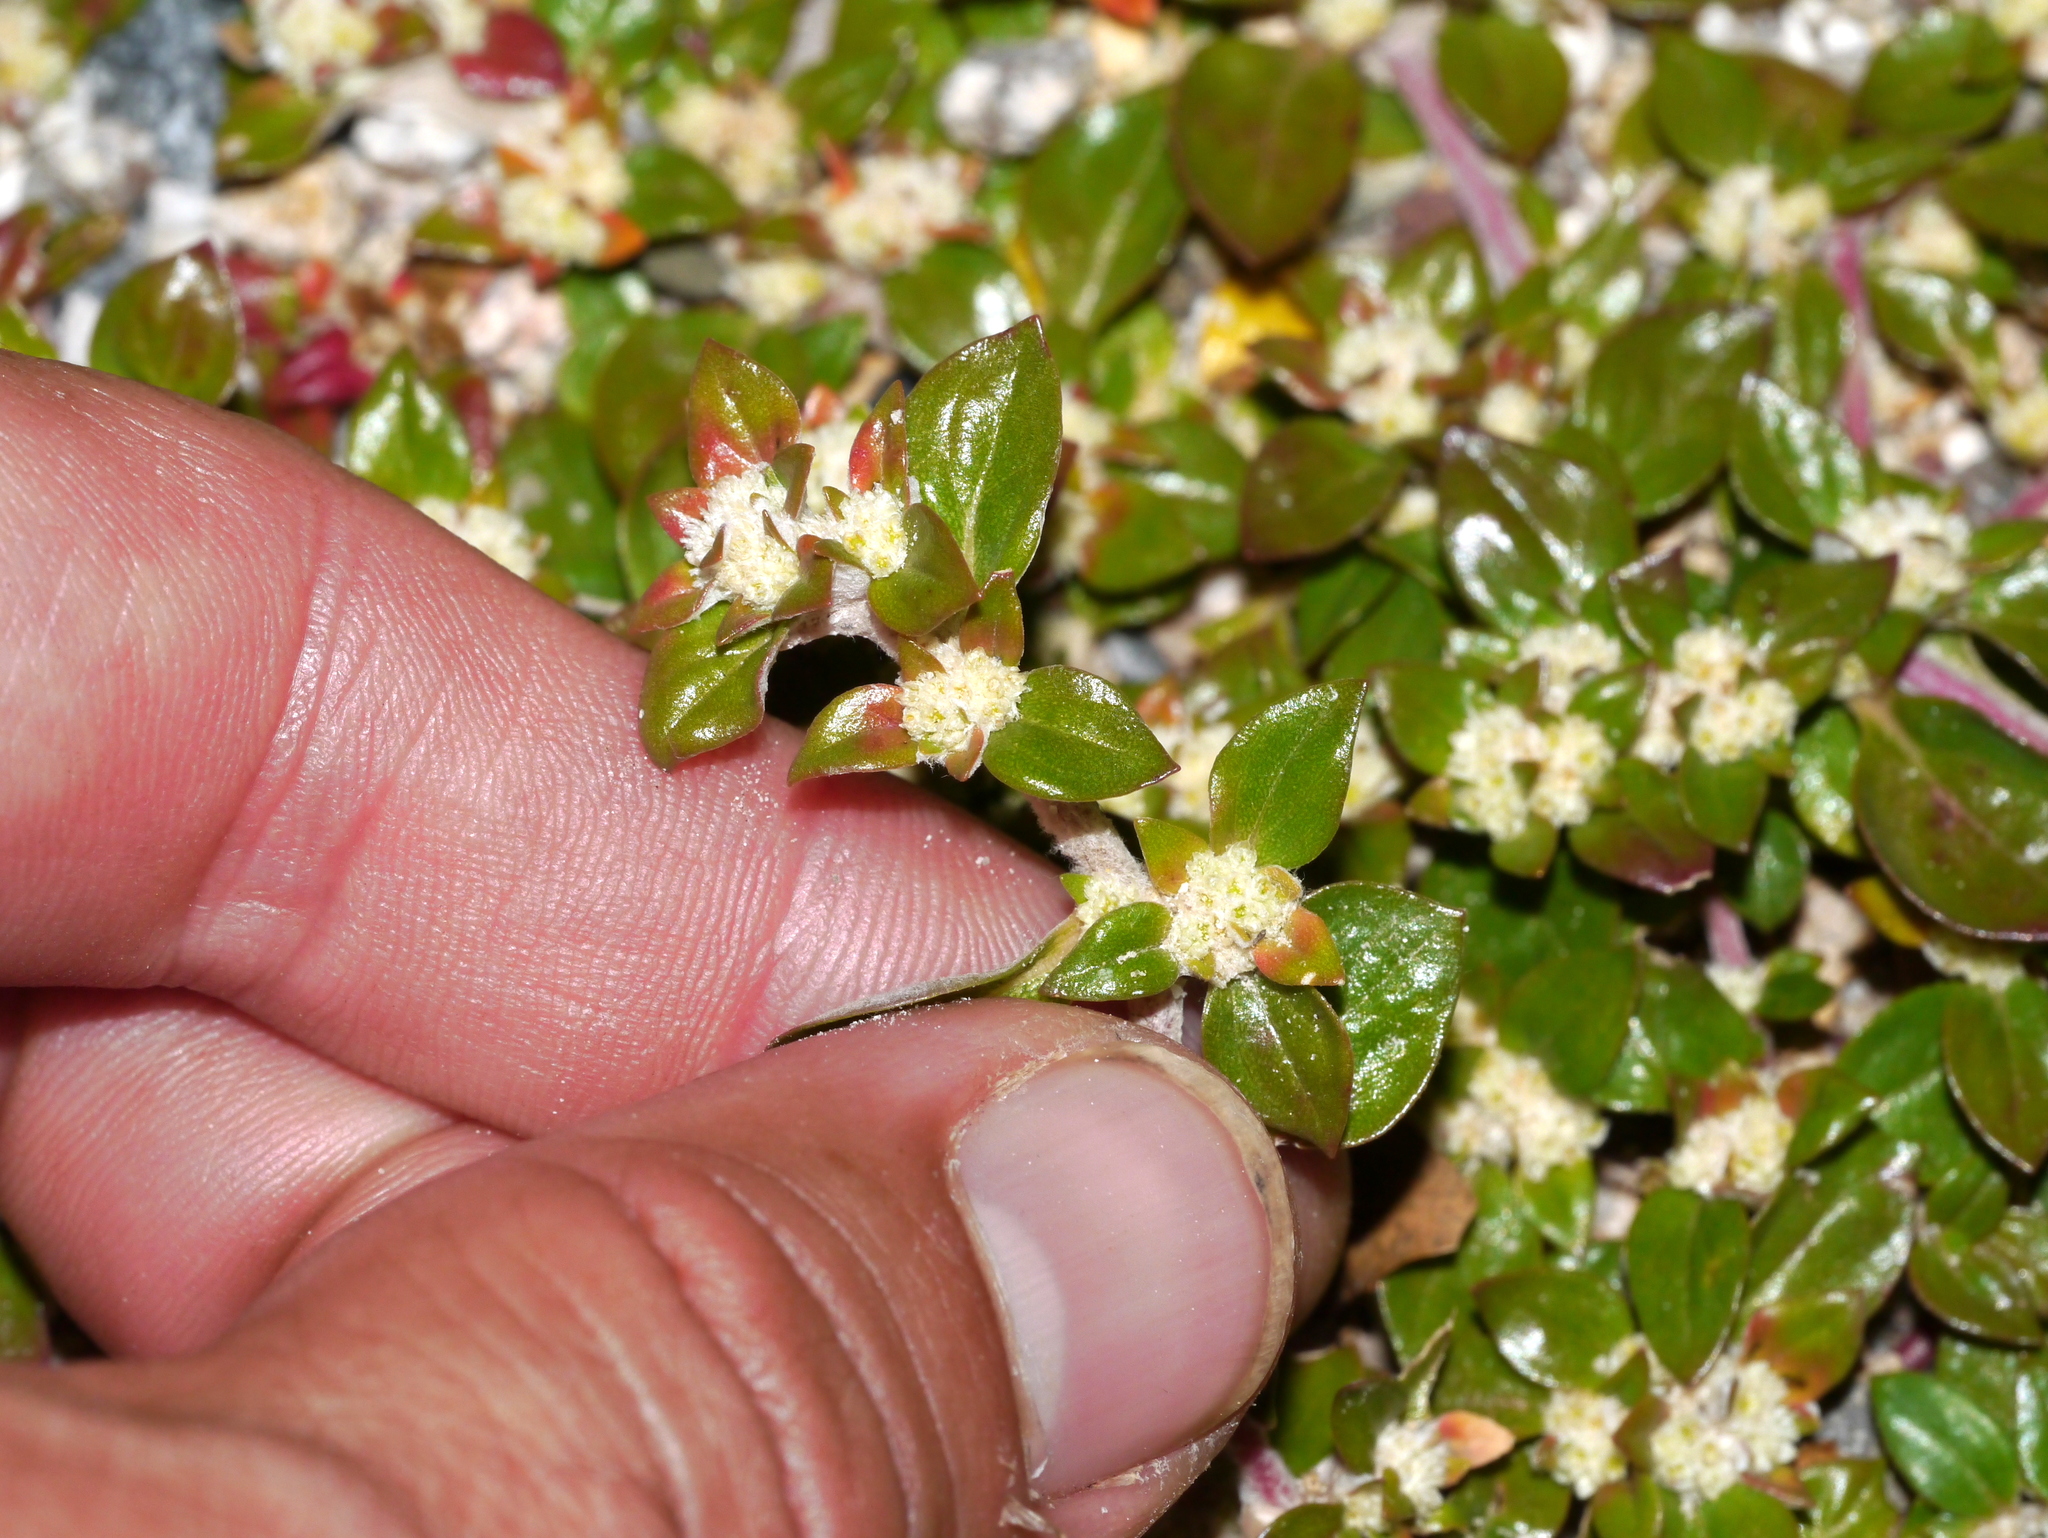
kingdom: Plantae
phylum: Tracheophyta
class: Magnoliopsida
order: Caryophyllales
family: Amaranthaceae
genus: Guilleminea
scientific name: Guilleminea densa
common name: Small matweed
